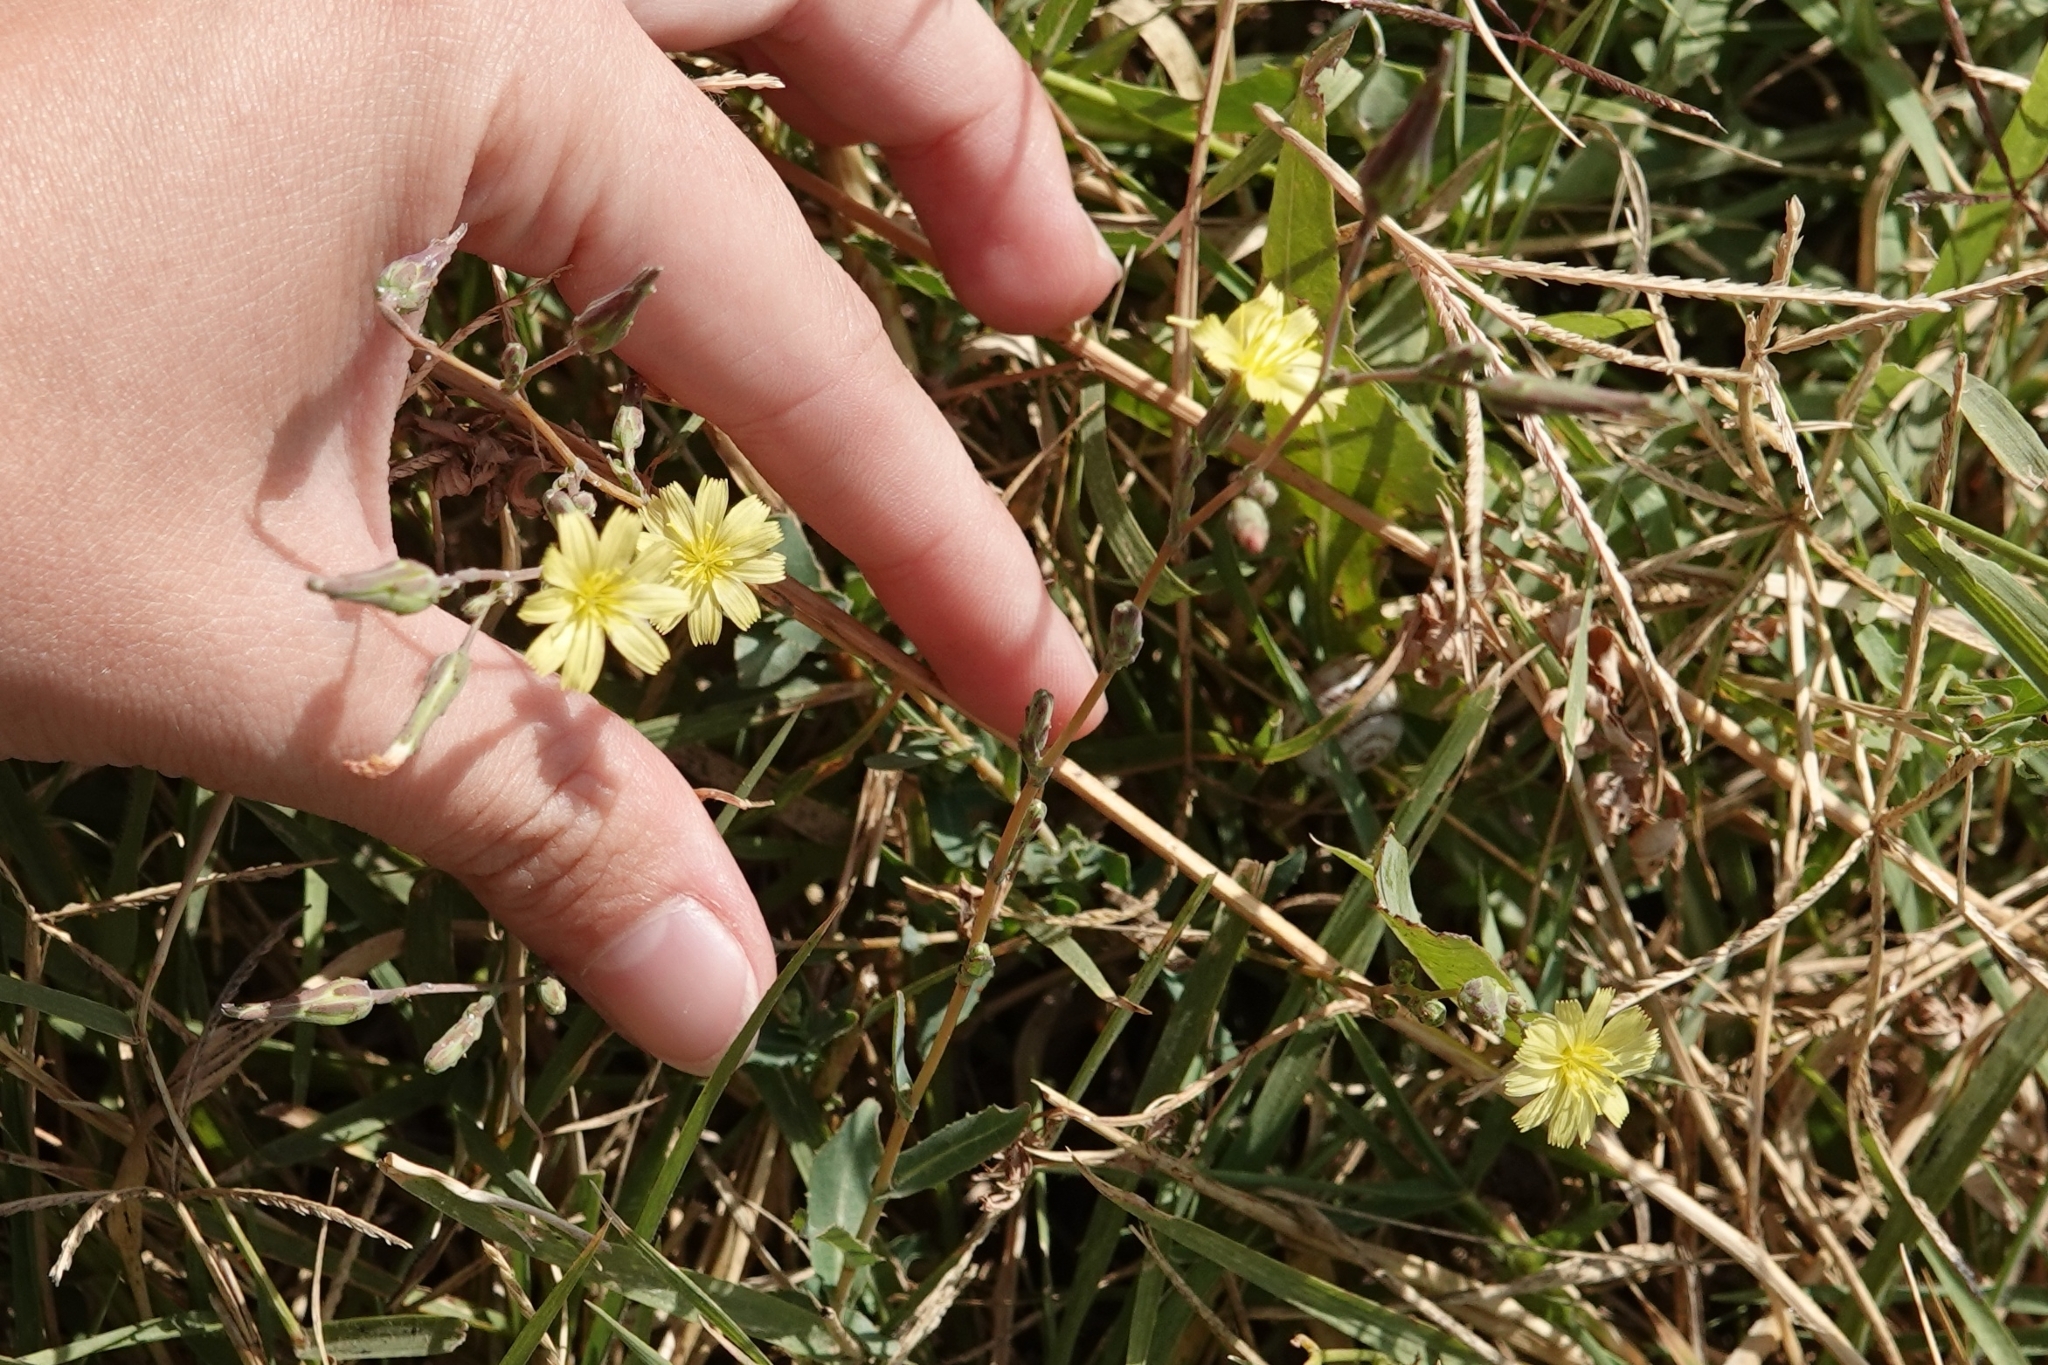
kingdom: Plantae
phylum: Tracheophyta
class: Magnoliopsida
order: Asterales
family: Asteraceae
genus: Lactuca
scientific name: Lactuca serriola
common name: Prickly lettuce
